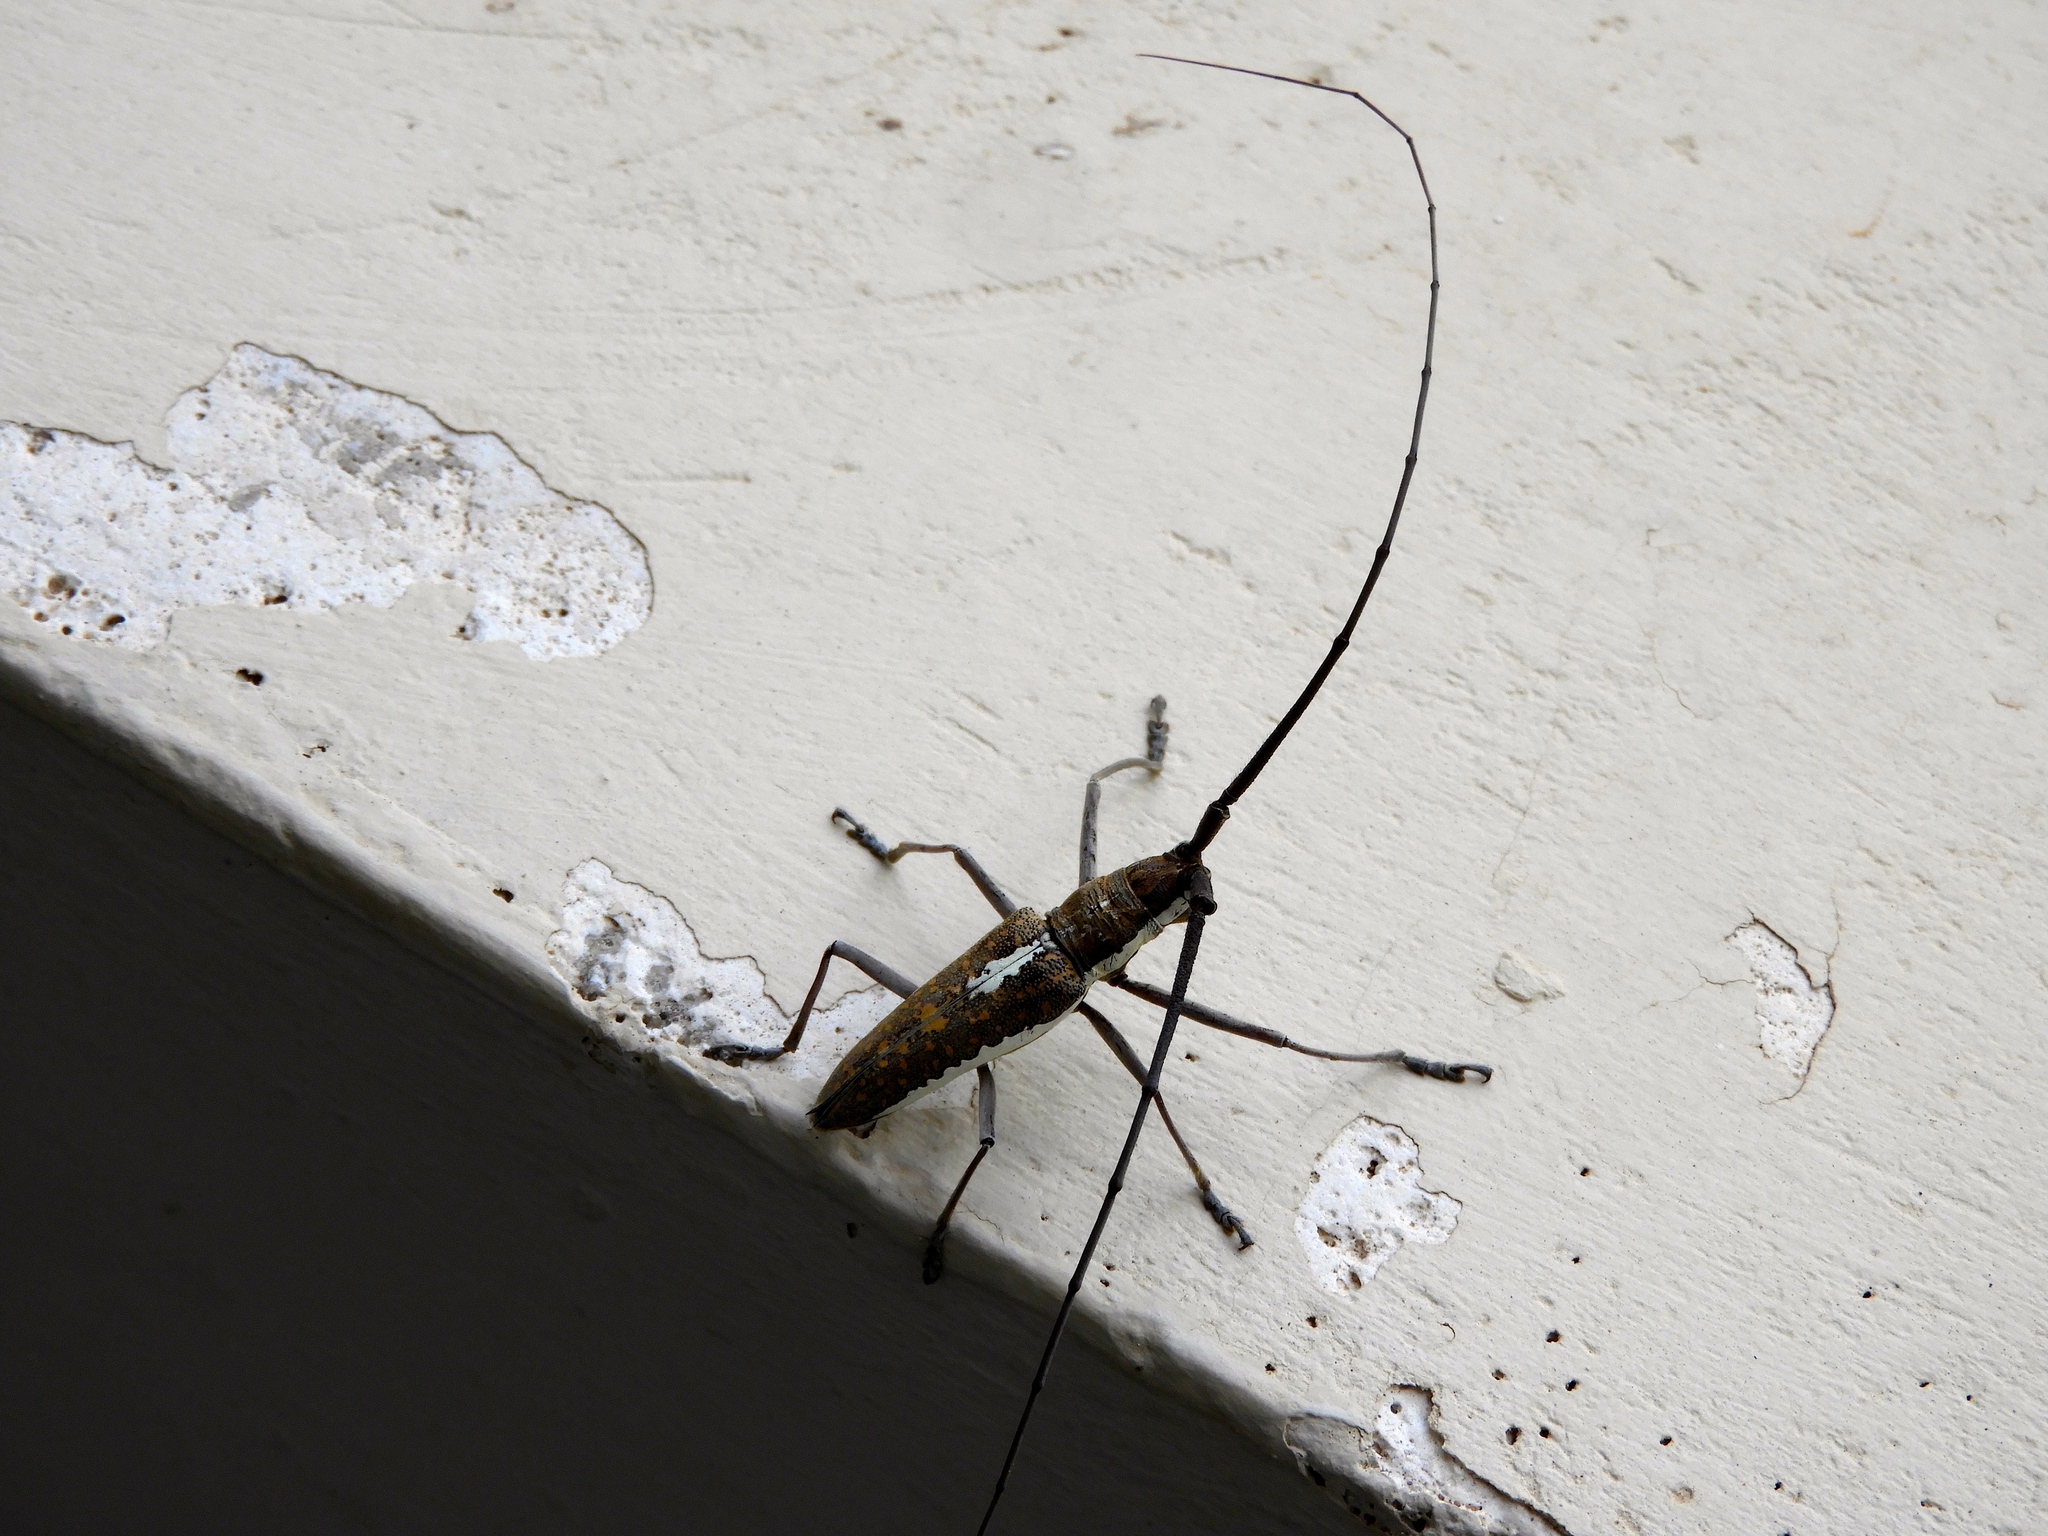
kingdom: Animalia
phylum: Arthropoda
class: Insecta
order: Coleoptera
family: Cerambycidae
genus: Neoptychodes
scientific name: Neoptychodes trilineatus
